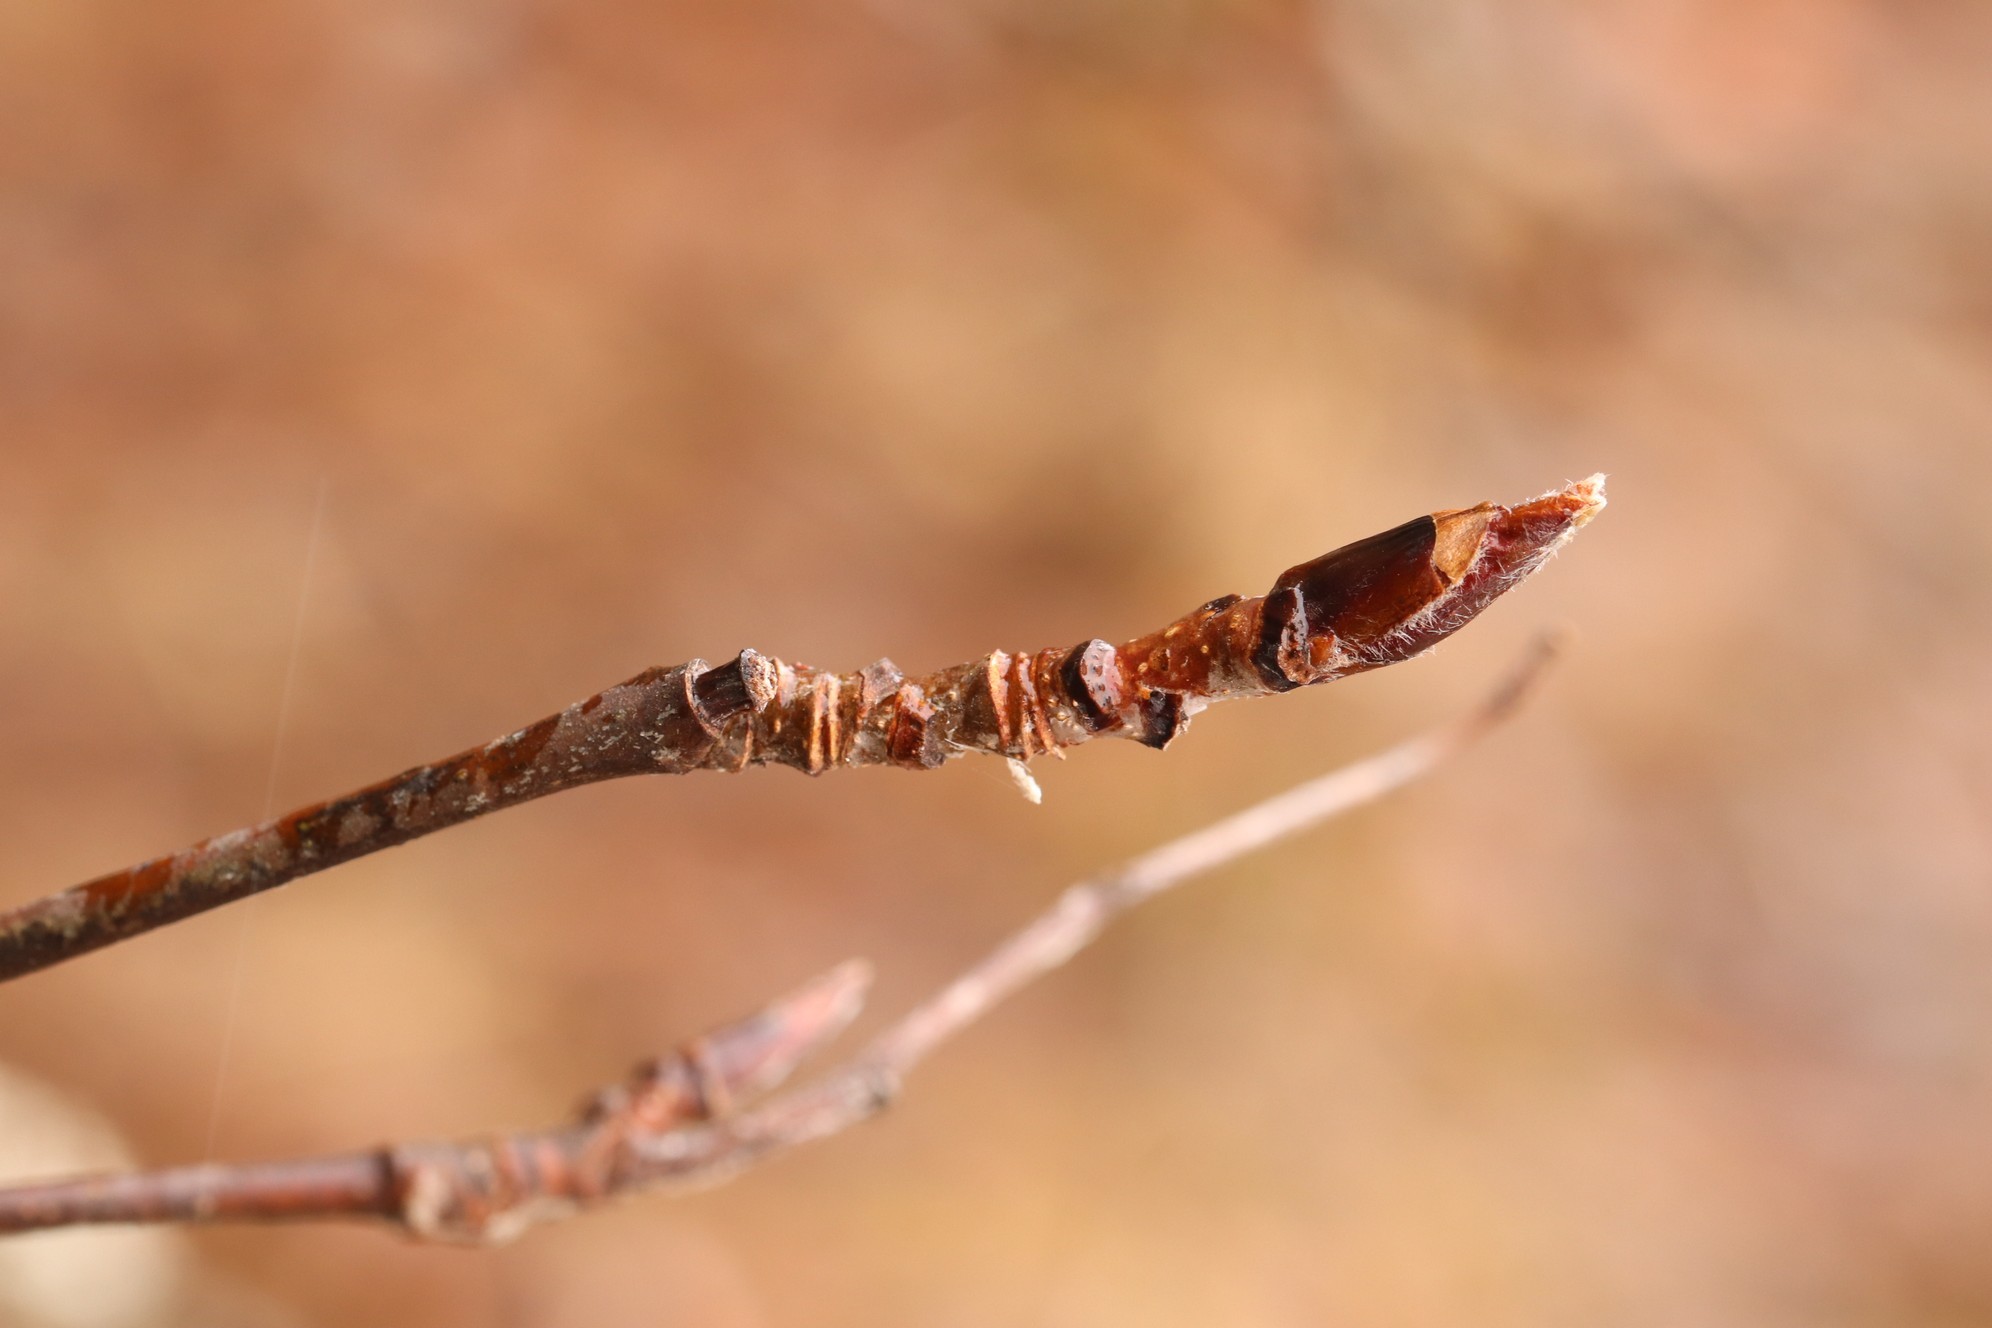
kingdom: Plantae
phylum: Tracheophyta
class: Magnoliopsida
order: Rosales
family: Rosaceae
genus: Sorbus
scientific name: Sorbus aucuparia
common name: Rowan
